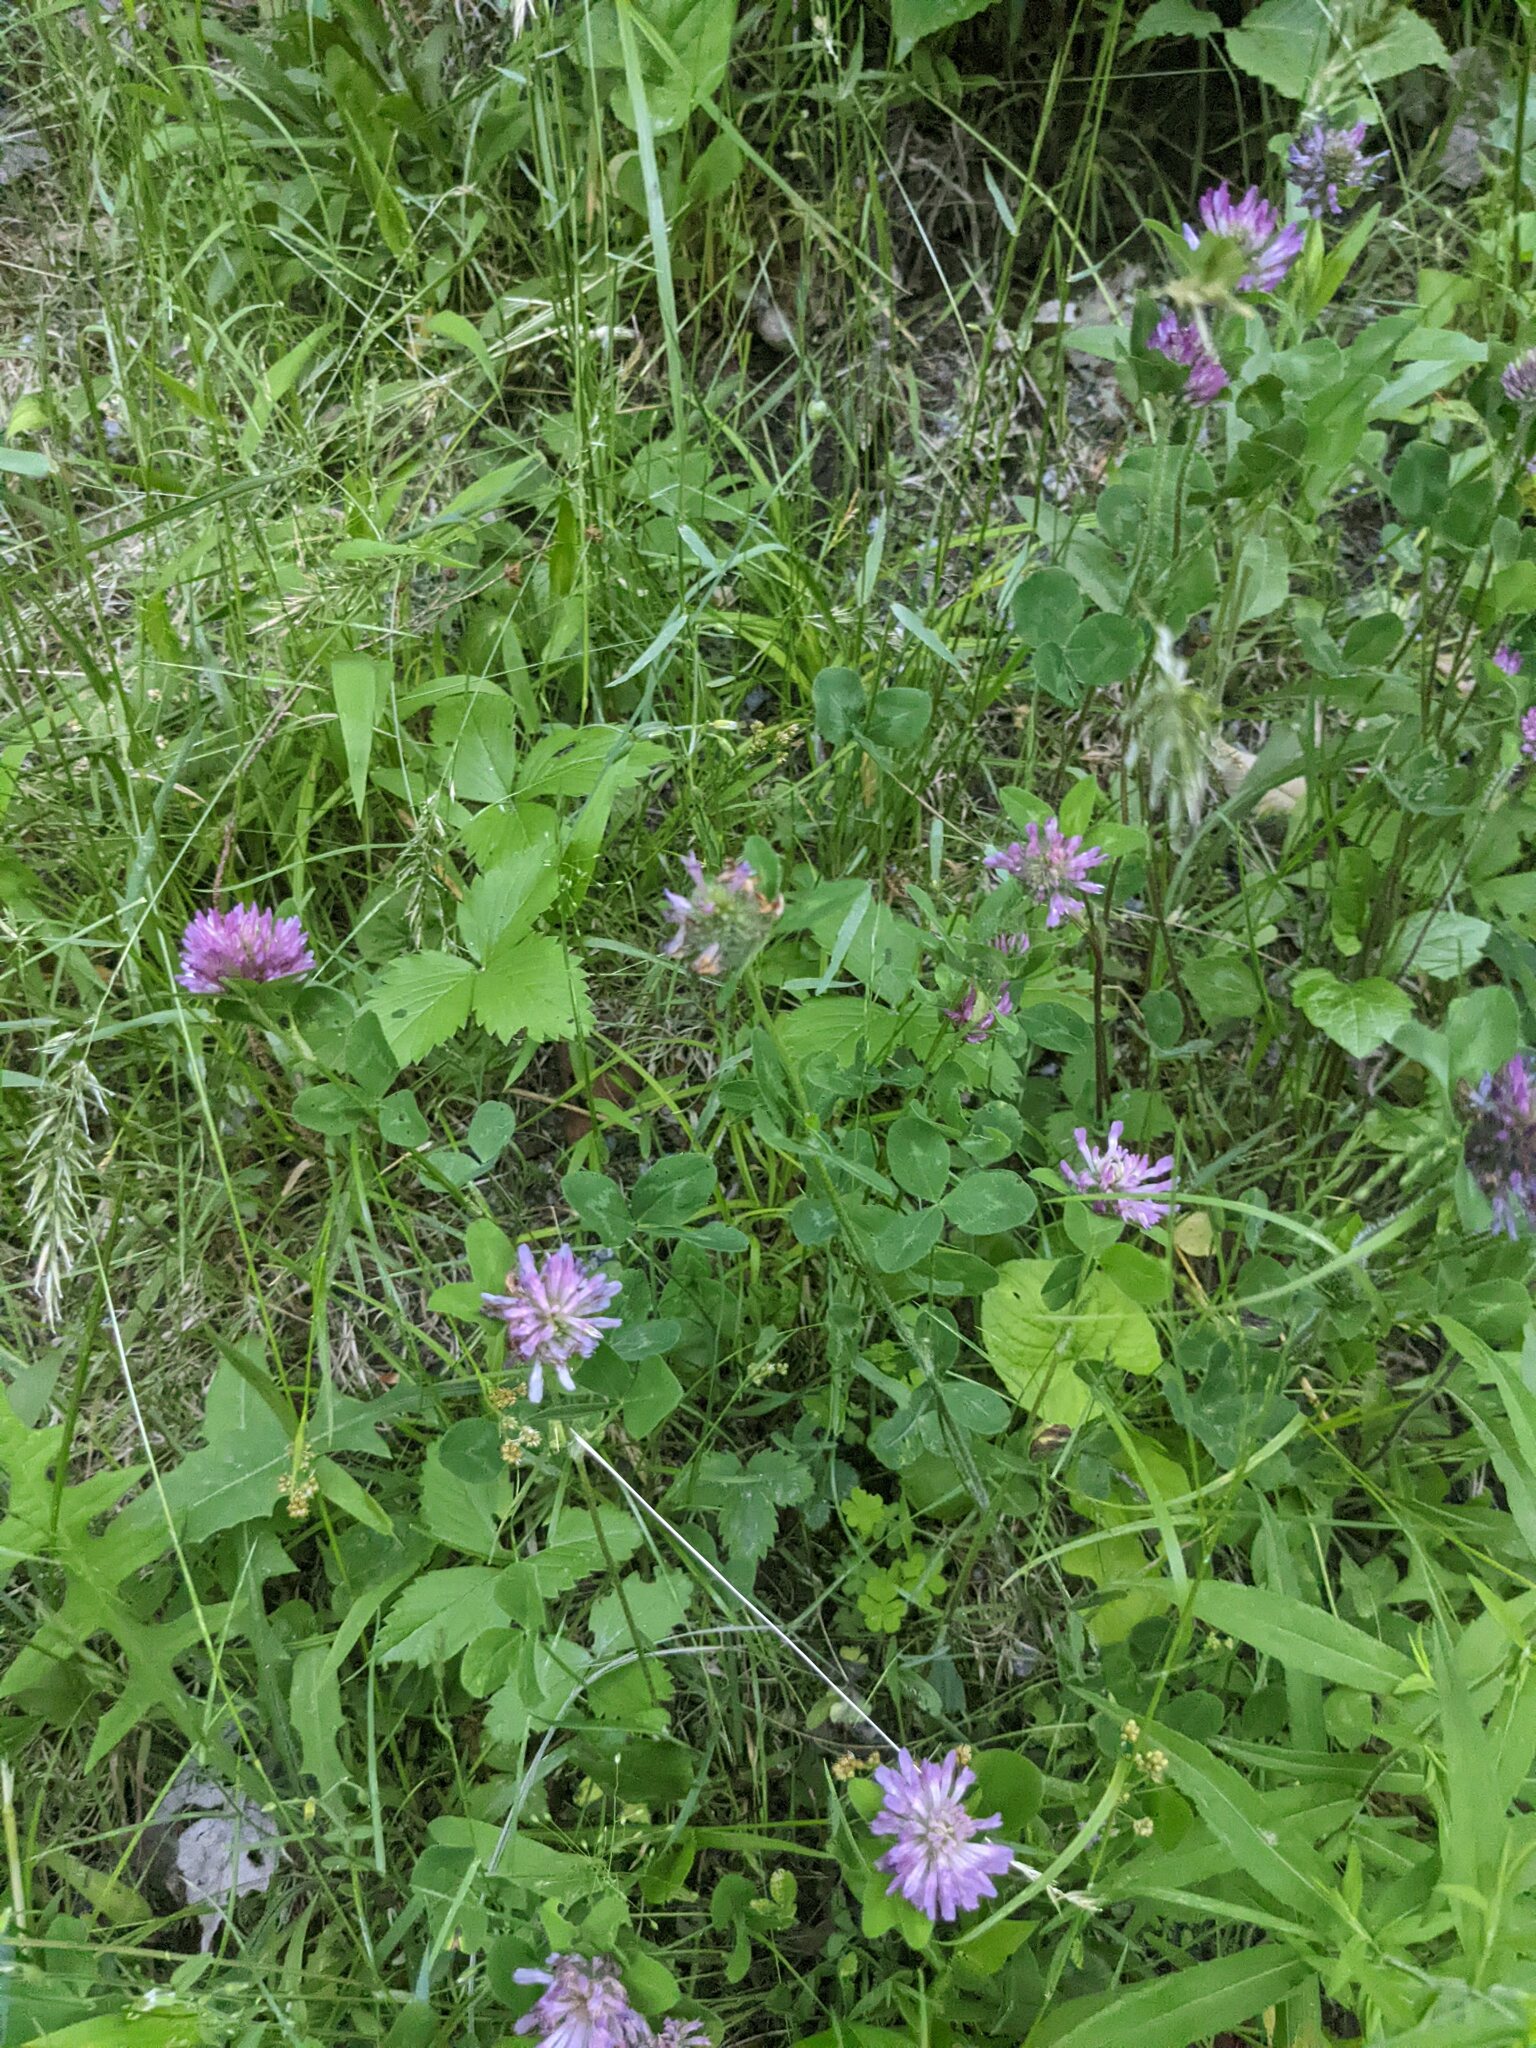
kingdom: Plantae
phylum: Tracheophyta
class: Magnoliopsida
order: Fabales
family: Fabaceae
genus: Trifolium
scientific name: Trifolium pratense
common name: Red clover
